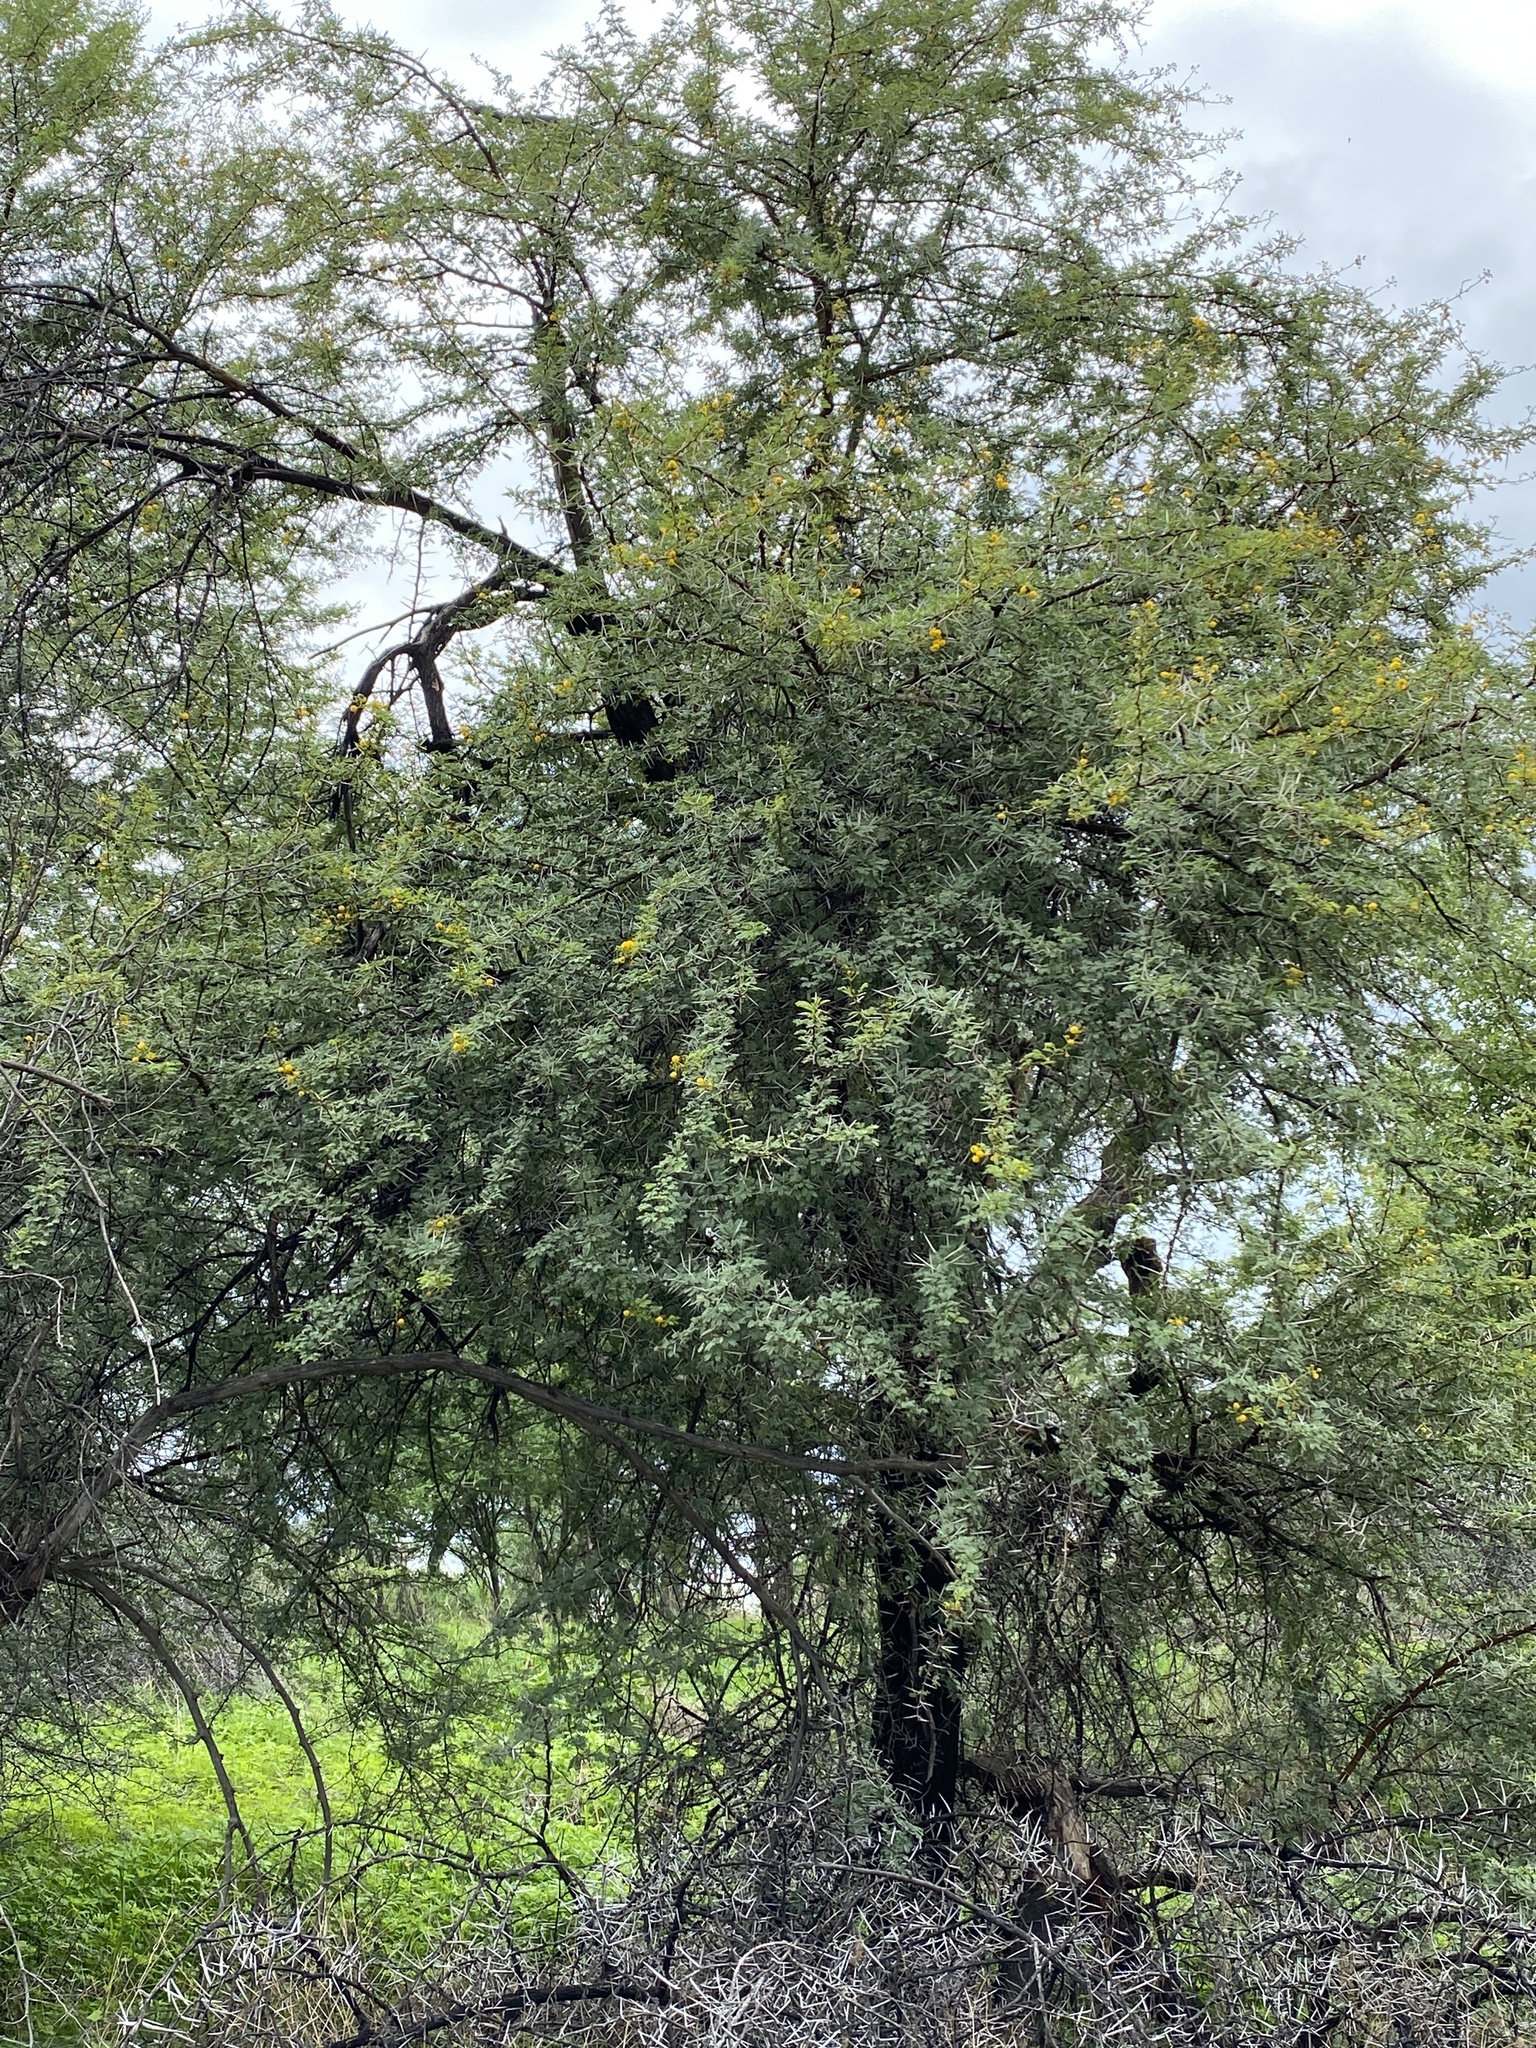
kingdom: Plantae
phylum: Tracheophyta
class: Magnoliopsida
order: Fabales
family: Fabaceae
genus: Vachellia
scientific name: Vachellia karroo
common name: Sweet thorn
